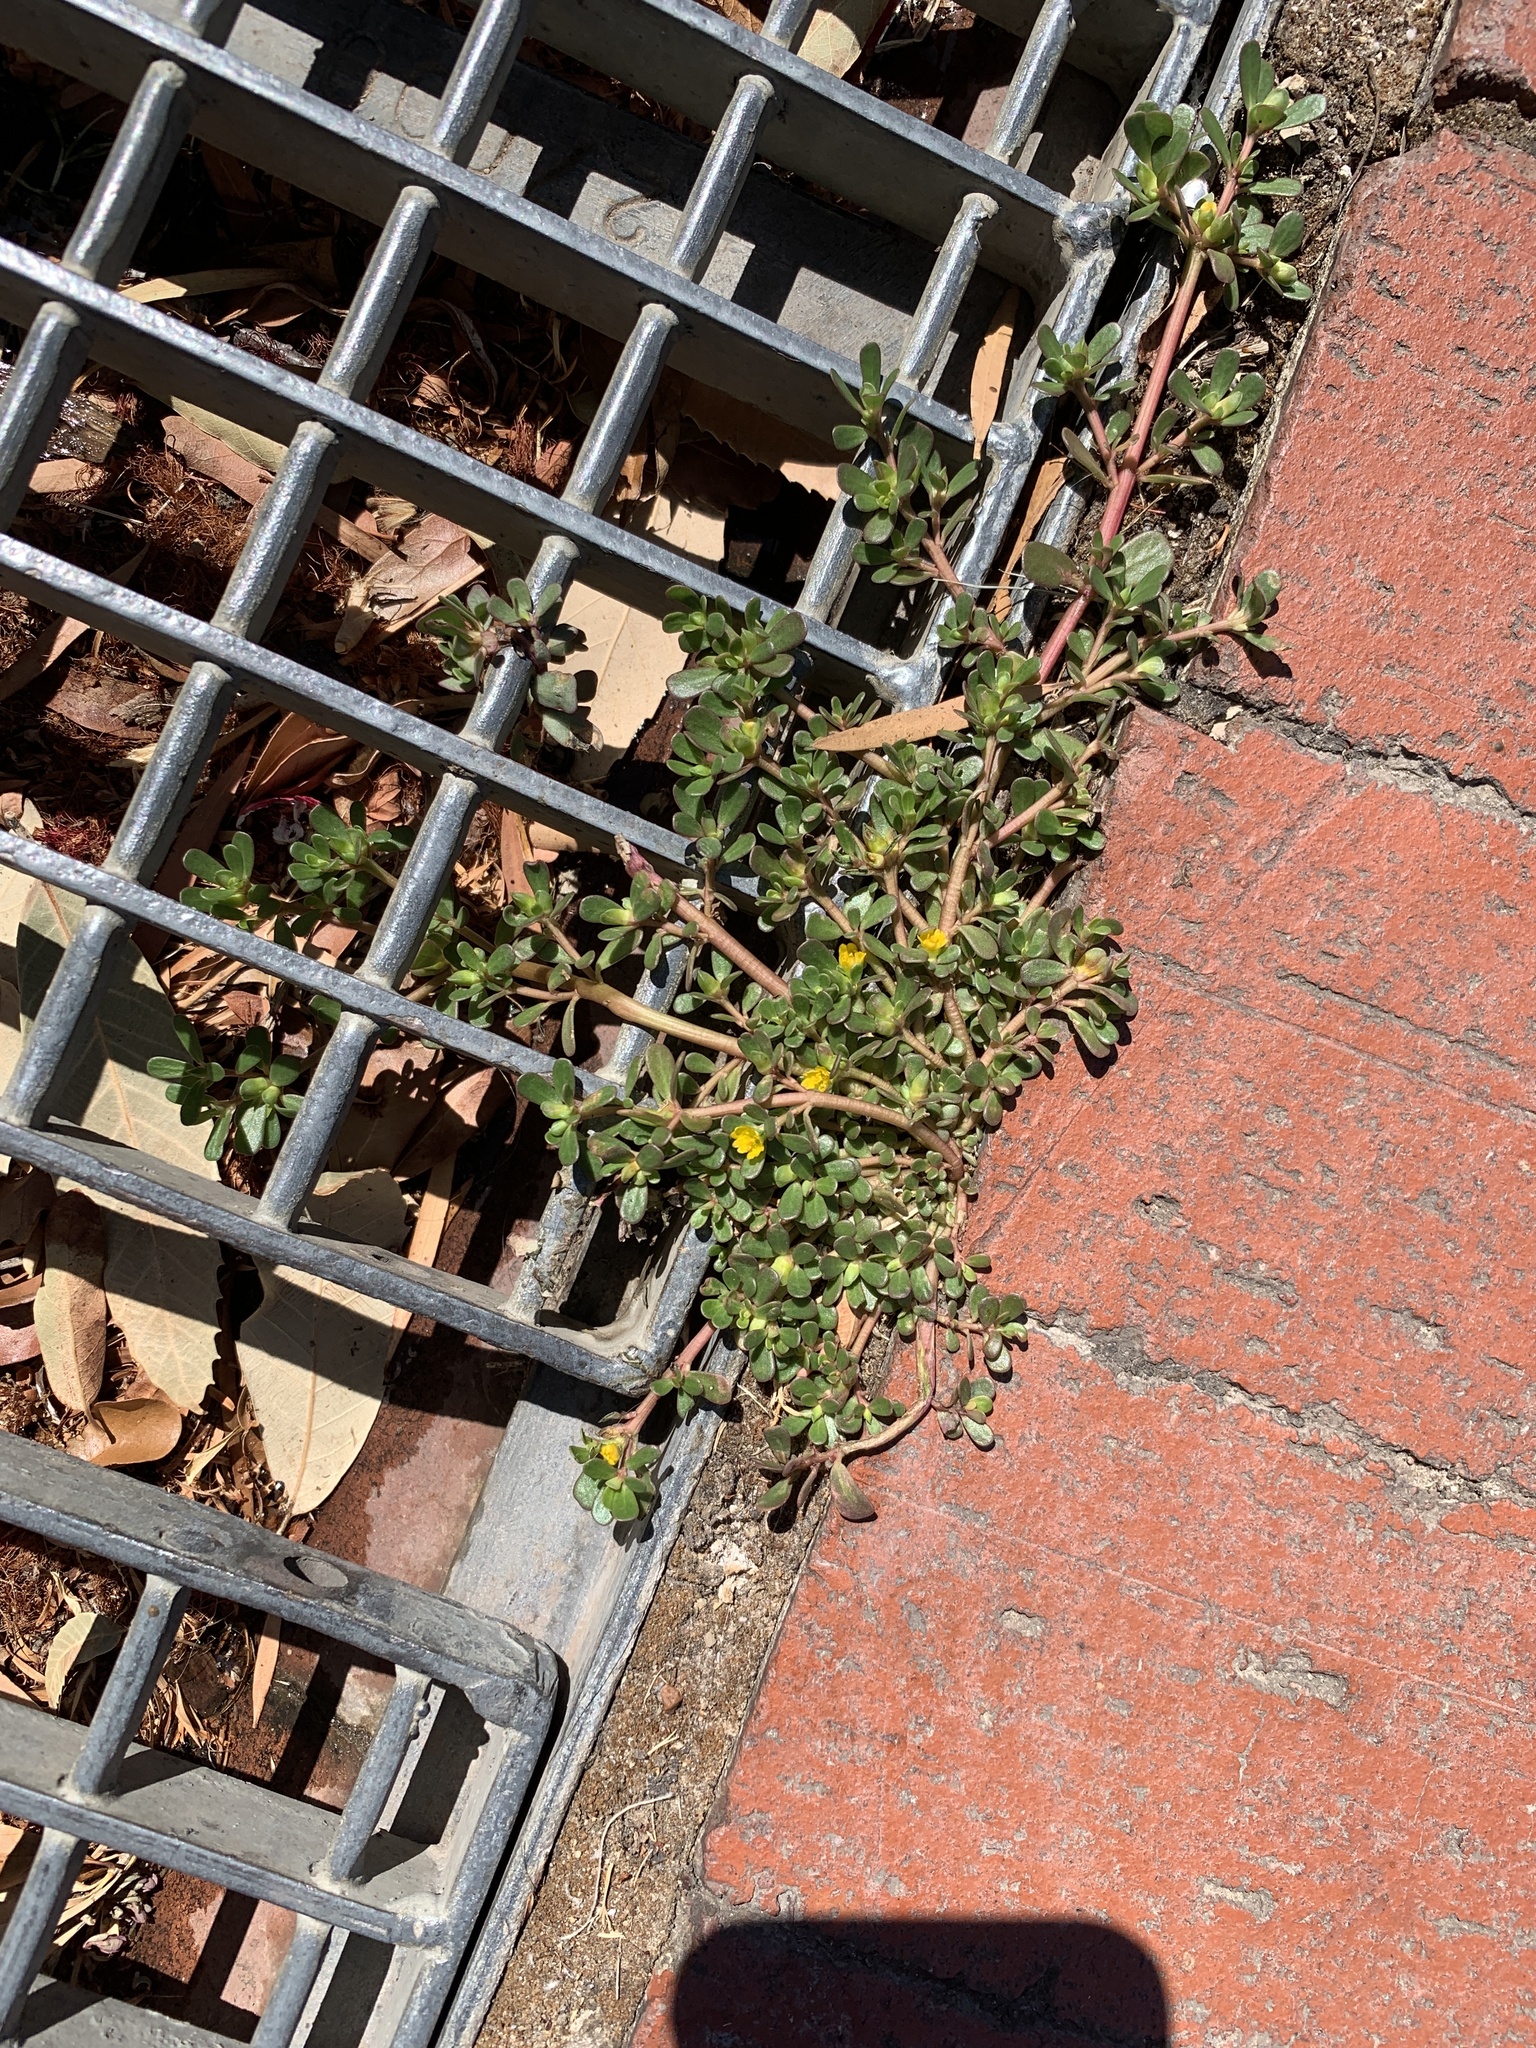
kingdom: Plantae
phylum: Tracheophyta
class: Magnoliopsida
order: Caryophyllales
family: Portulacaceae
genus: Portulaca
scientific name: Portulaca oleracea
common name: Common purslane
